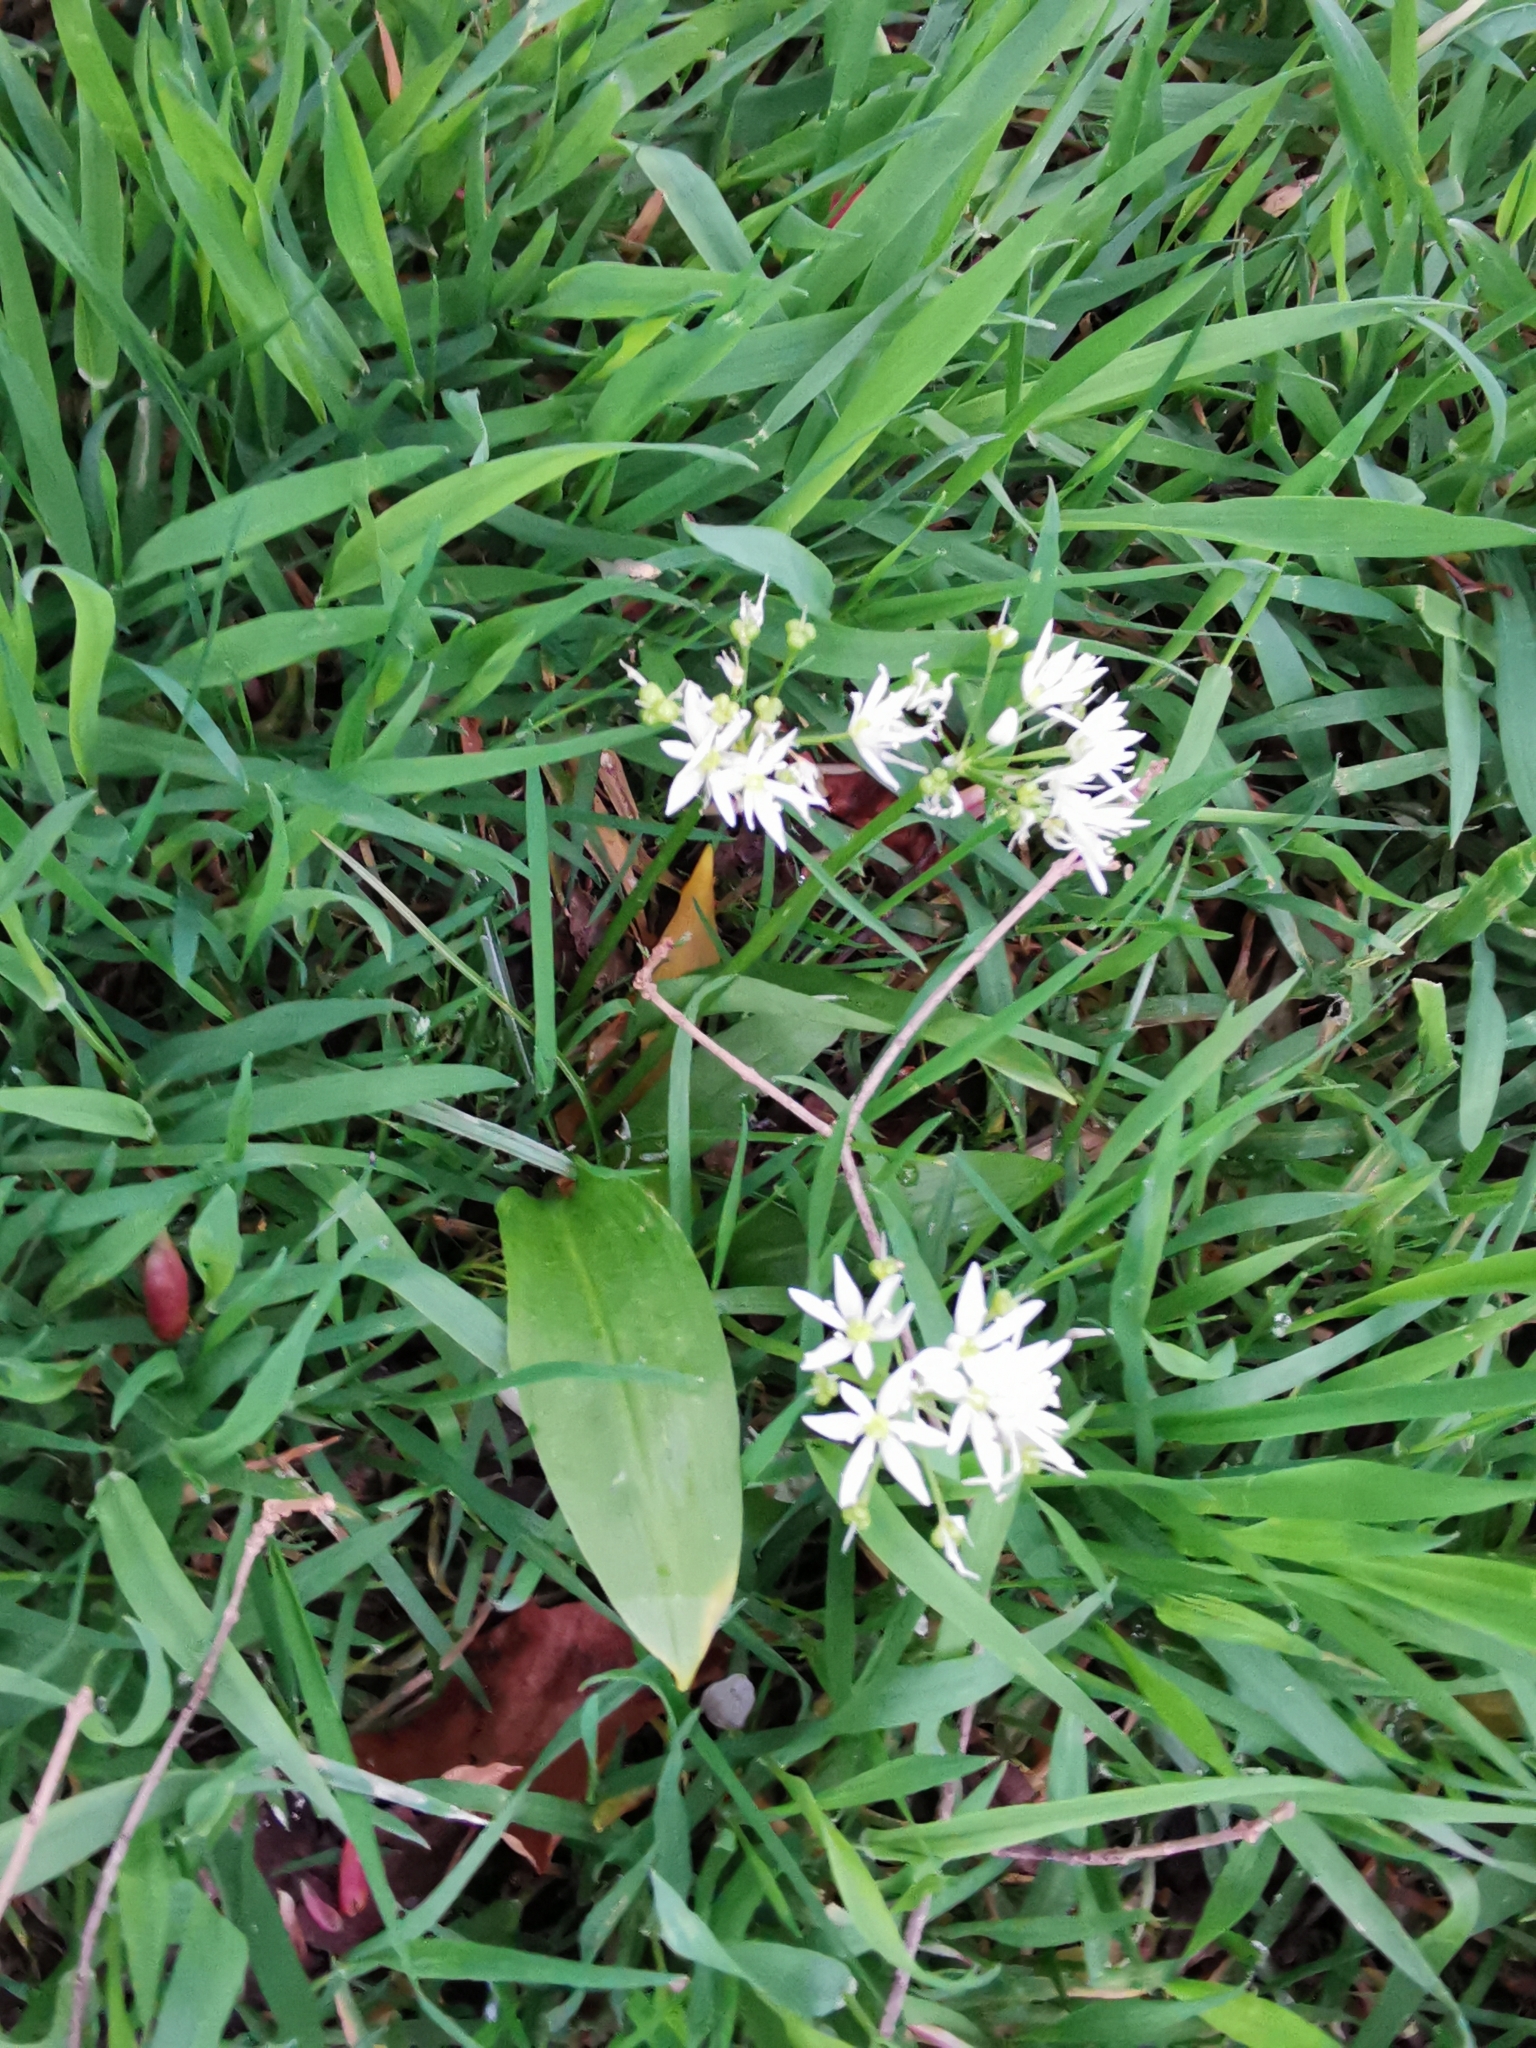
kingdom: Plantae
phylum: Tracheophyta
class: Liliopsida
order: Asparagales
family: Amaryllidaceae
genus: Allium
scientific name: Allium ursinum
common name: Ramsons
